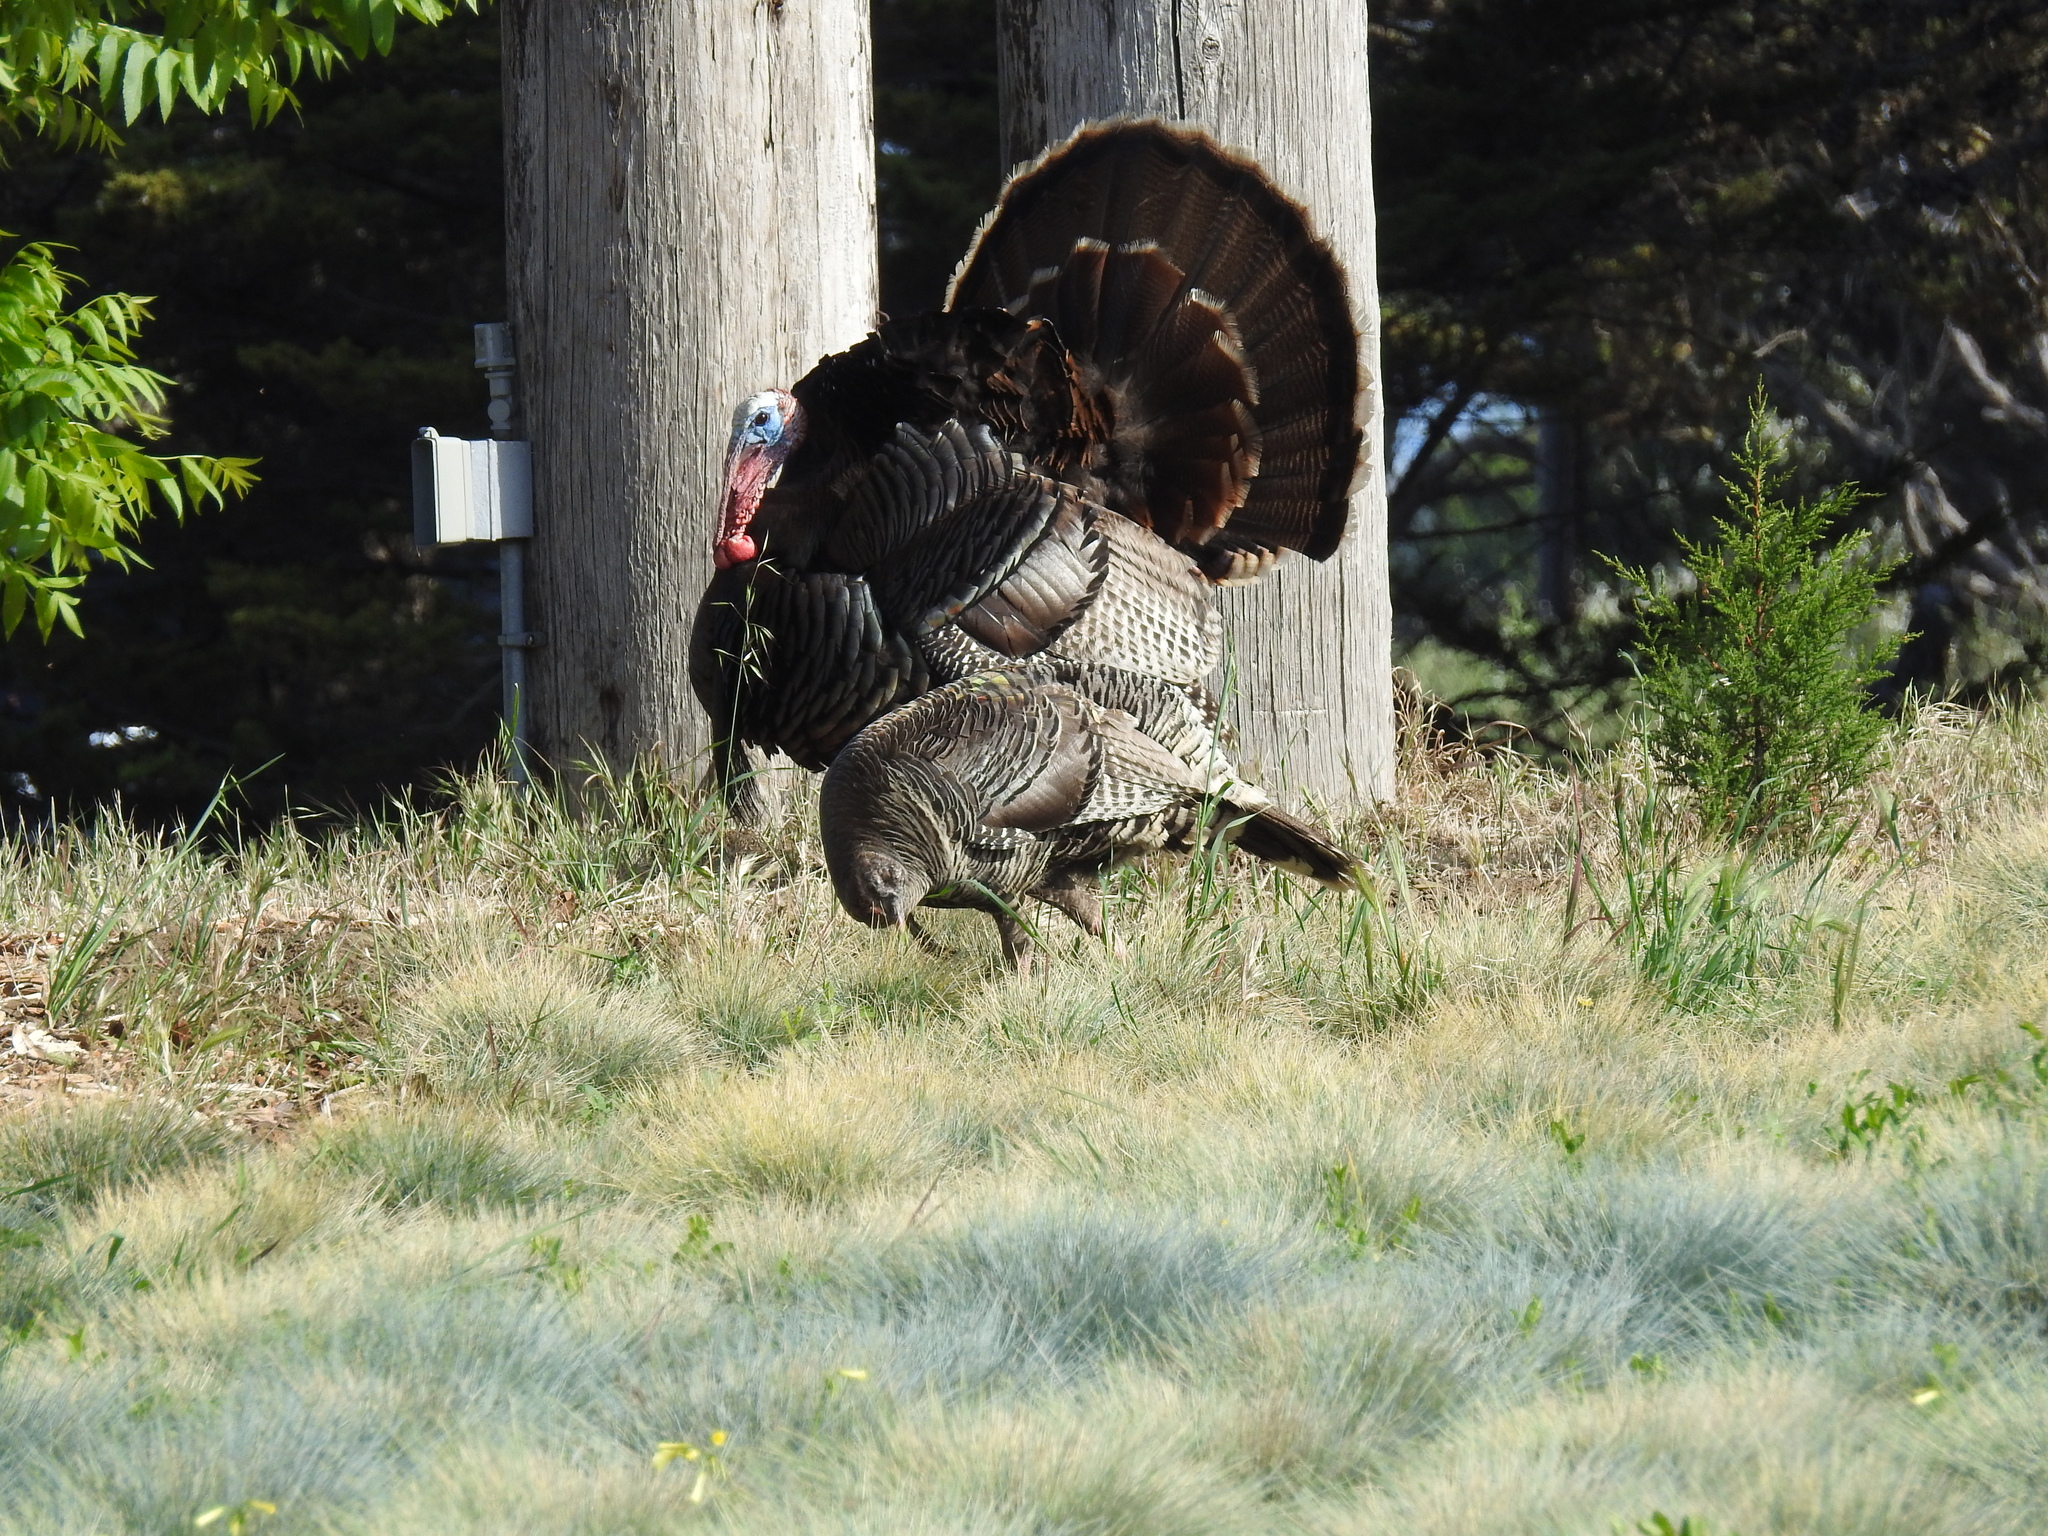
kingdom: Animalia
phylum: Chordata
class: Aves
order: Galliformes
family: Phasianidae
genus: Meleagris
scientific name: Meleagris gallopavo
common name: Wild turkey
